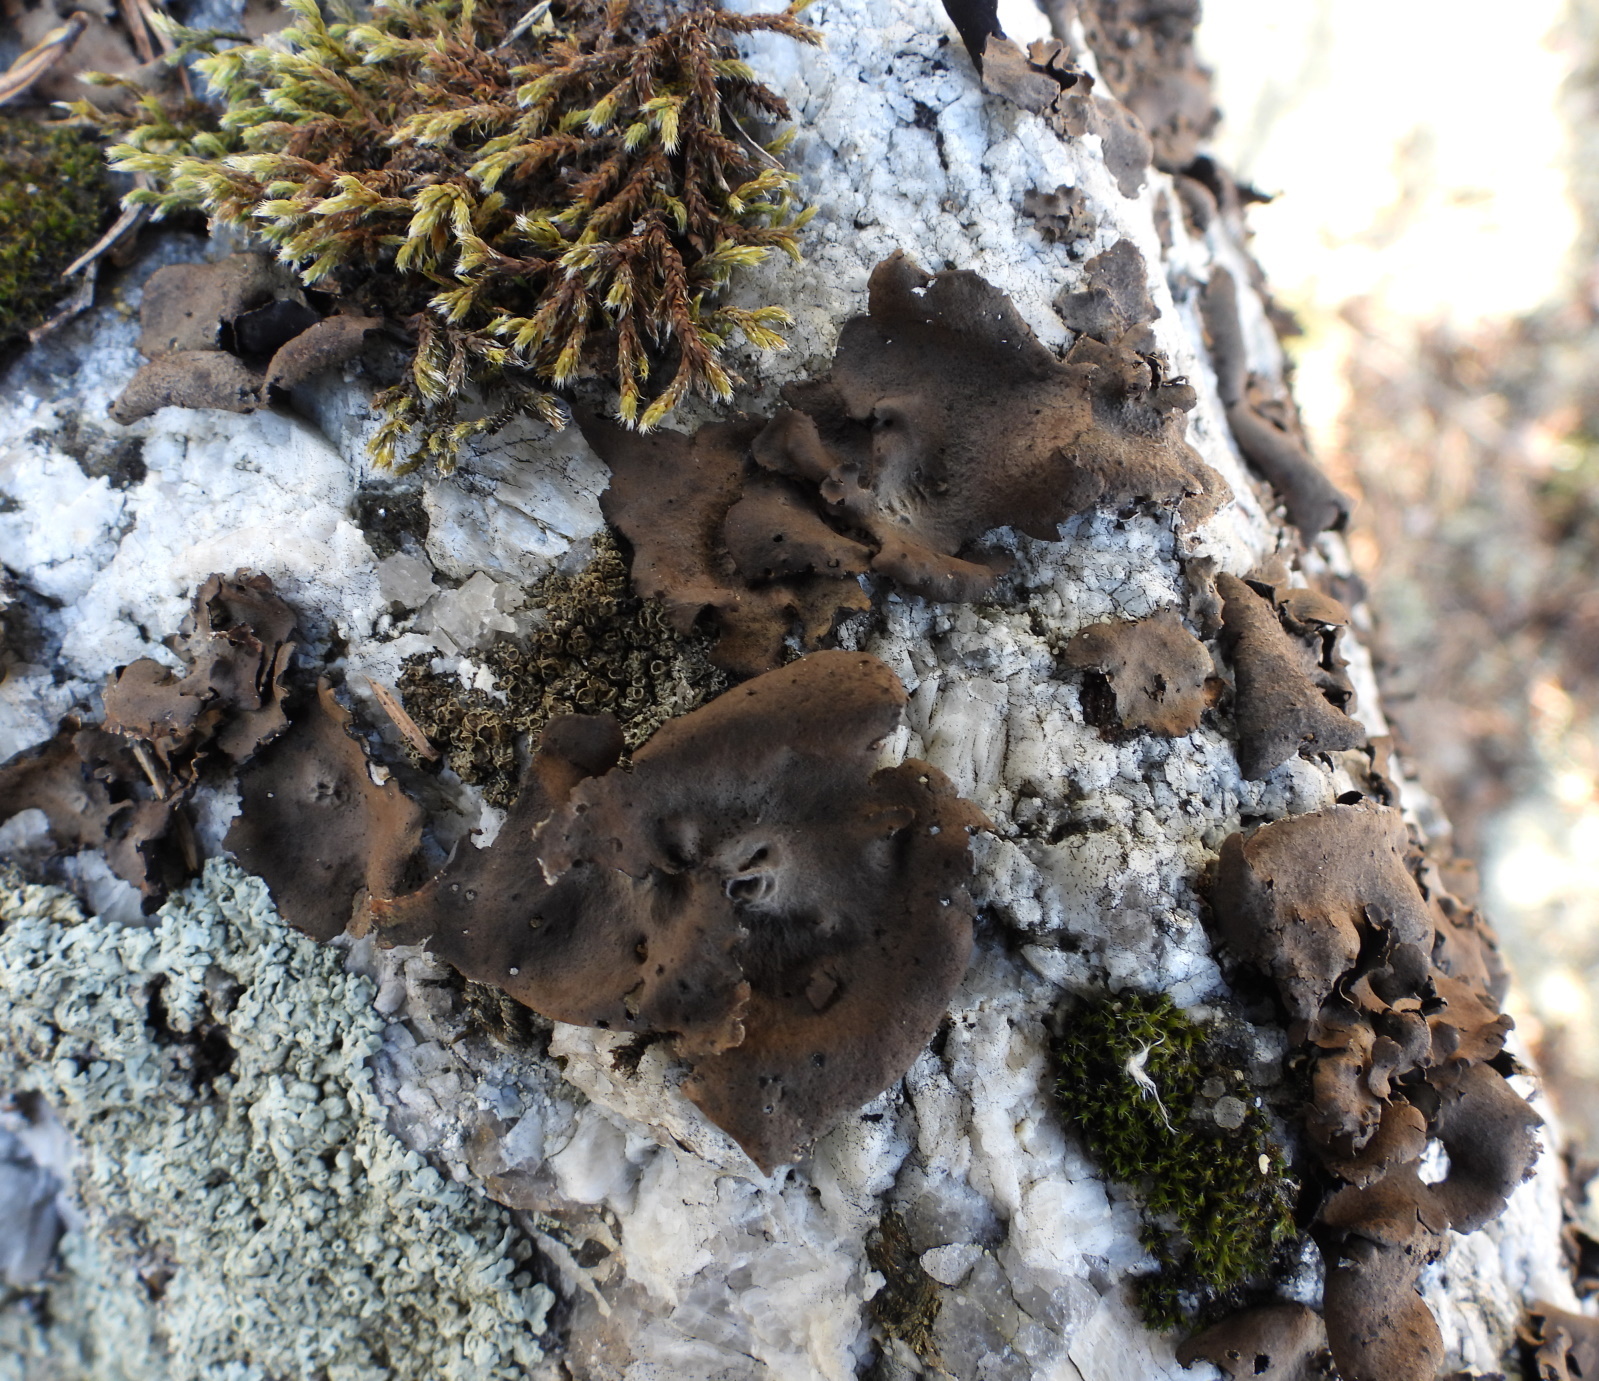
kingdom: Fungi
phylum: Ascomycota
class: Lecanoromycetes
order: Umbilicariales
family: Umbilicariaceae
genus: Umbilicaria
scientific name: Umbilicaria polyphylla
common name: Petalled rocktripe lichen
